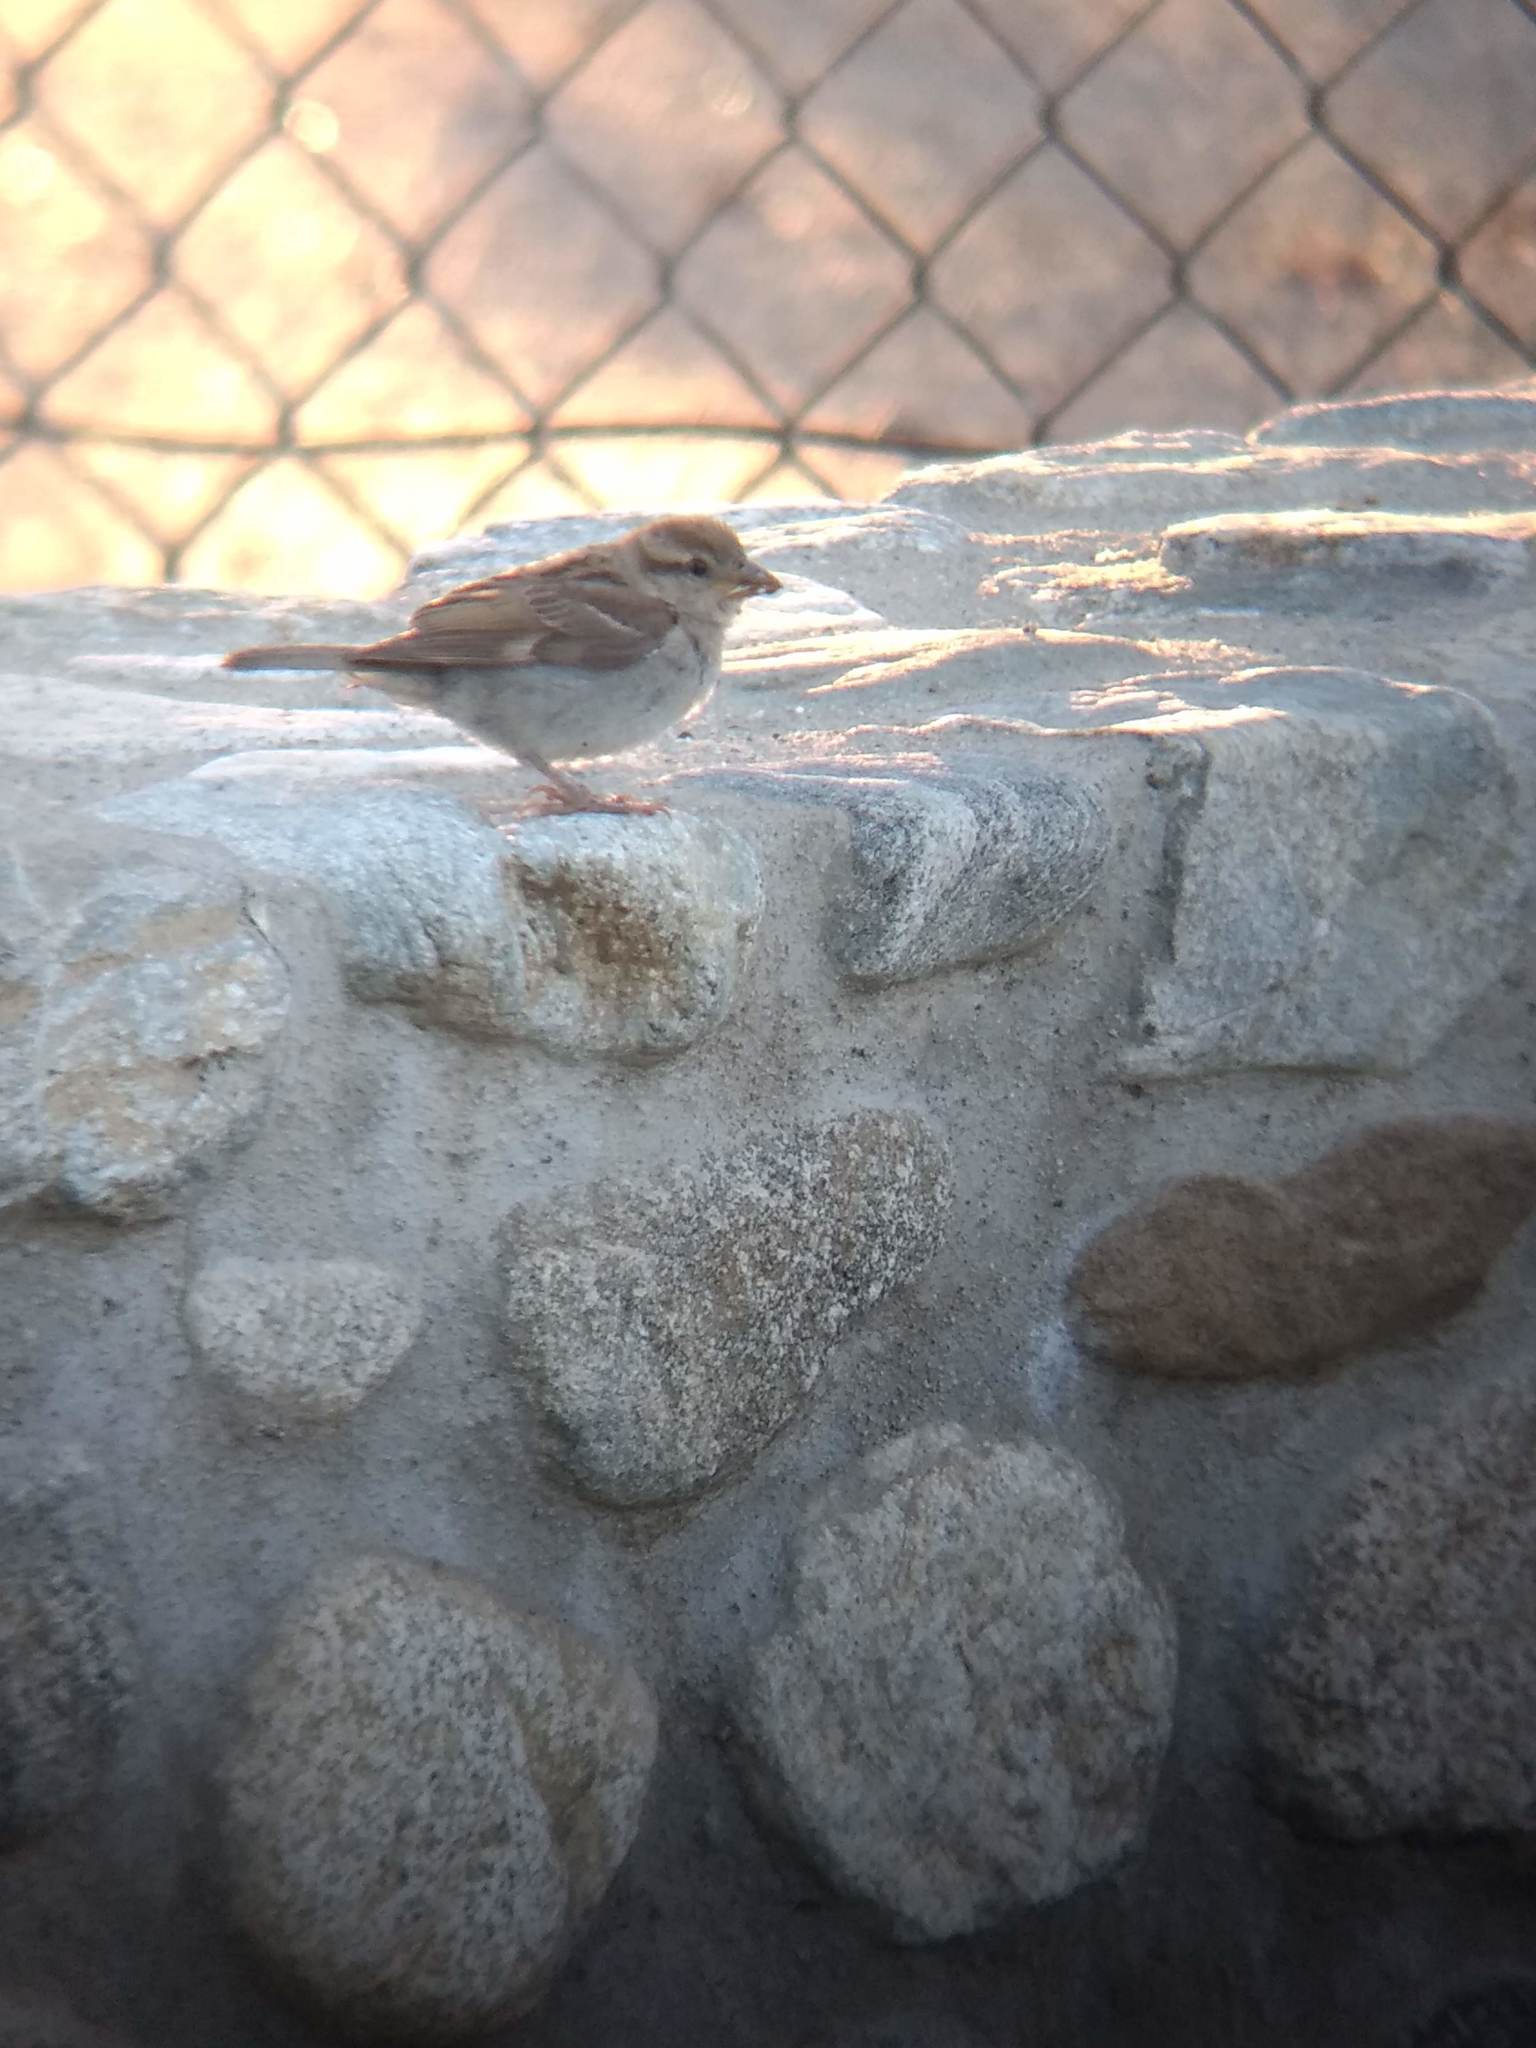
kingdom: Animalia
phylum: Chordata
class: Aves
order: Passeriformes
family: Passeridae
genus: Passer
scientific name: Passer domesticus
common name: House sparrow
